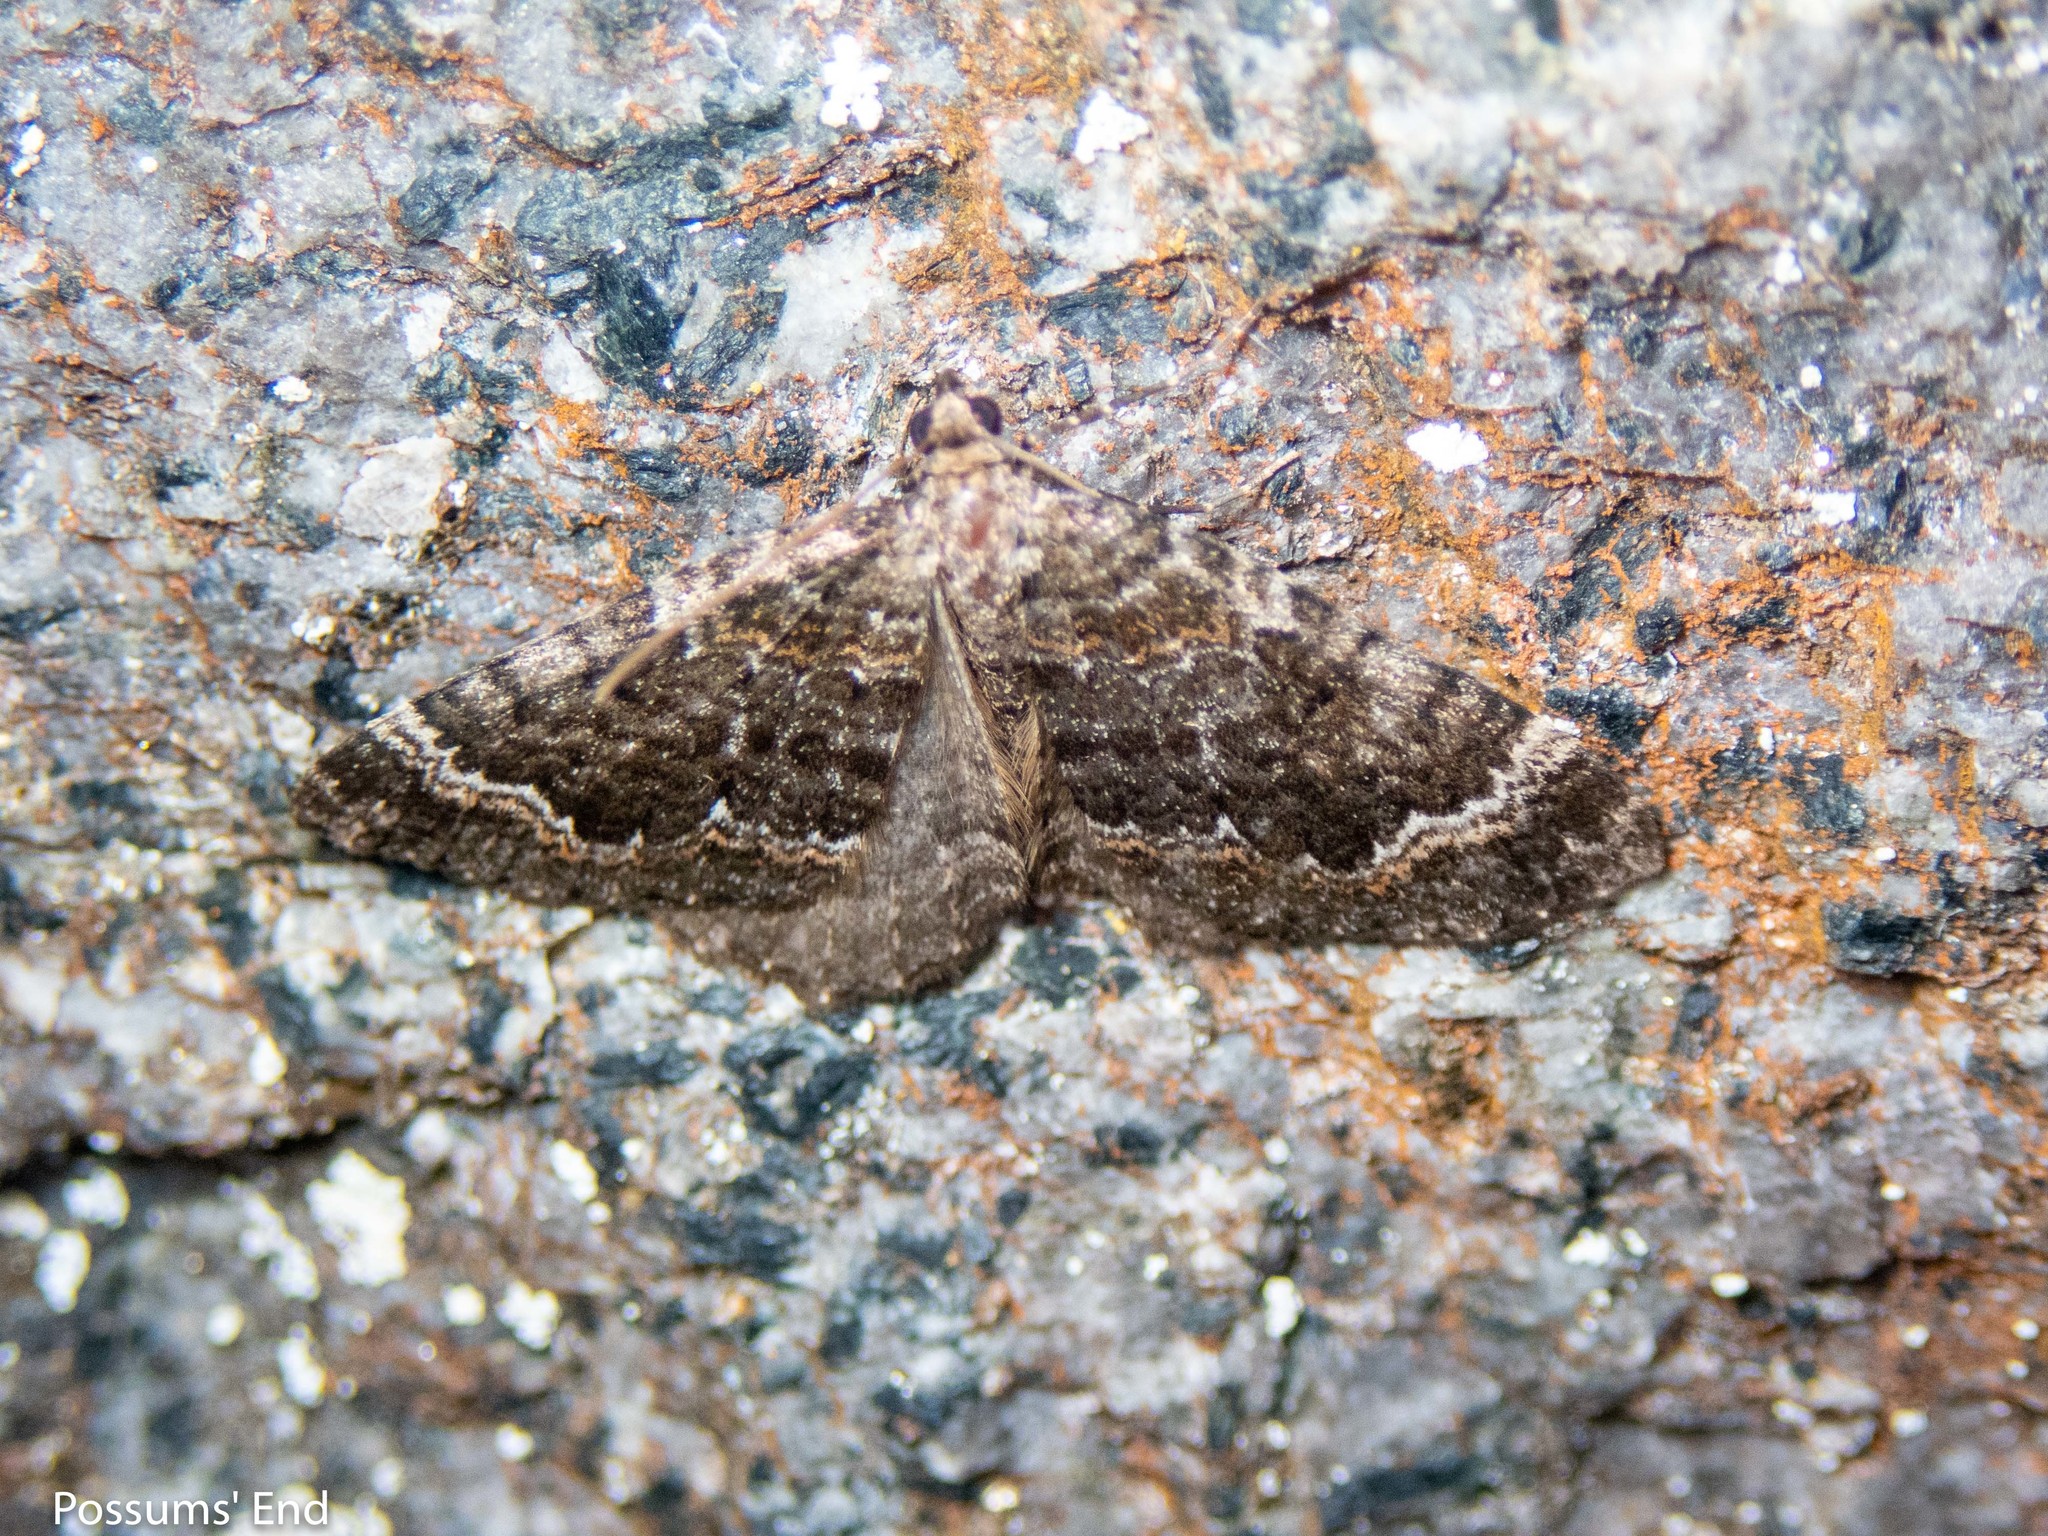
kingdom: Animalia
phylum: Arthropoda
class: Insecta
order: Lepidoptera
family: Geometridae
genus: Asaphodes
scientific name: Asaphodes chionogramma
